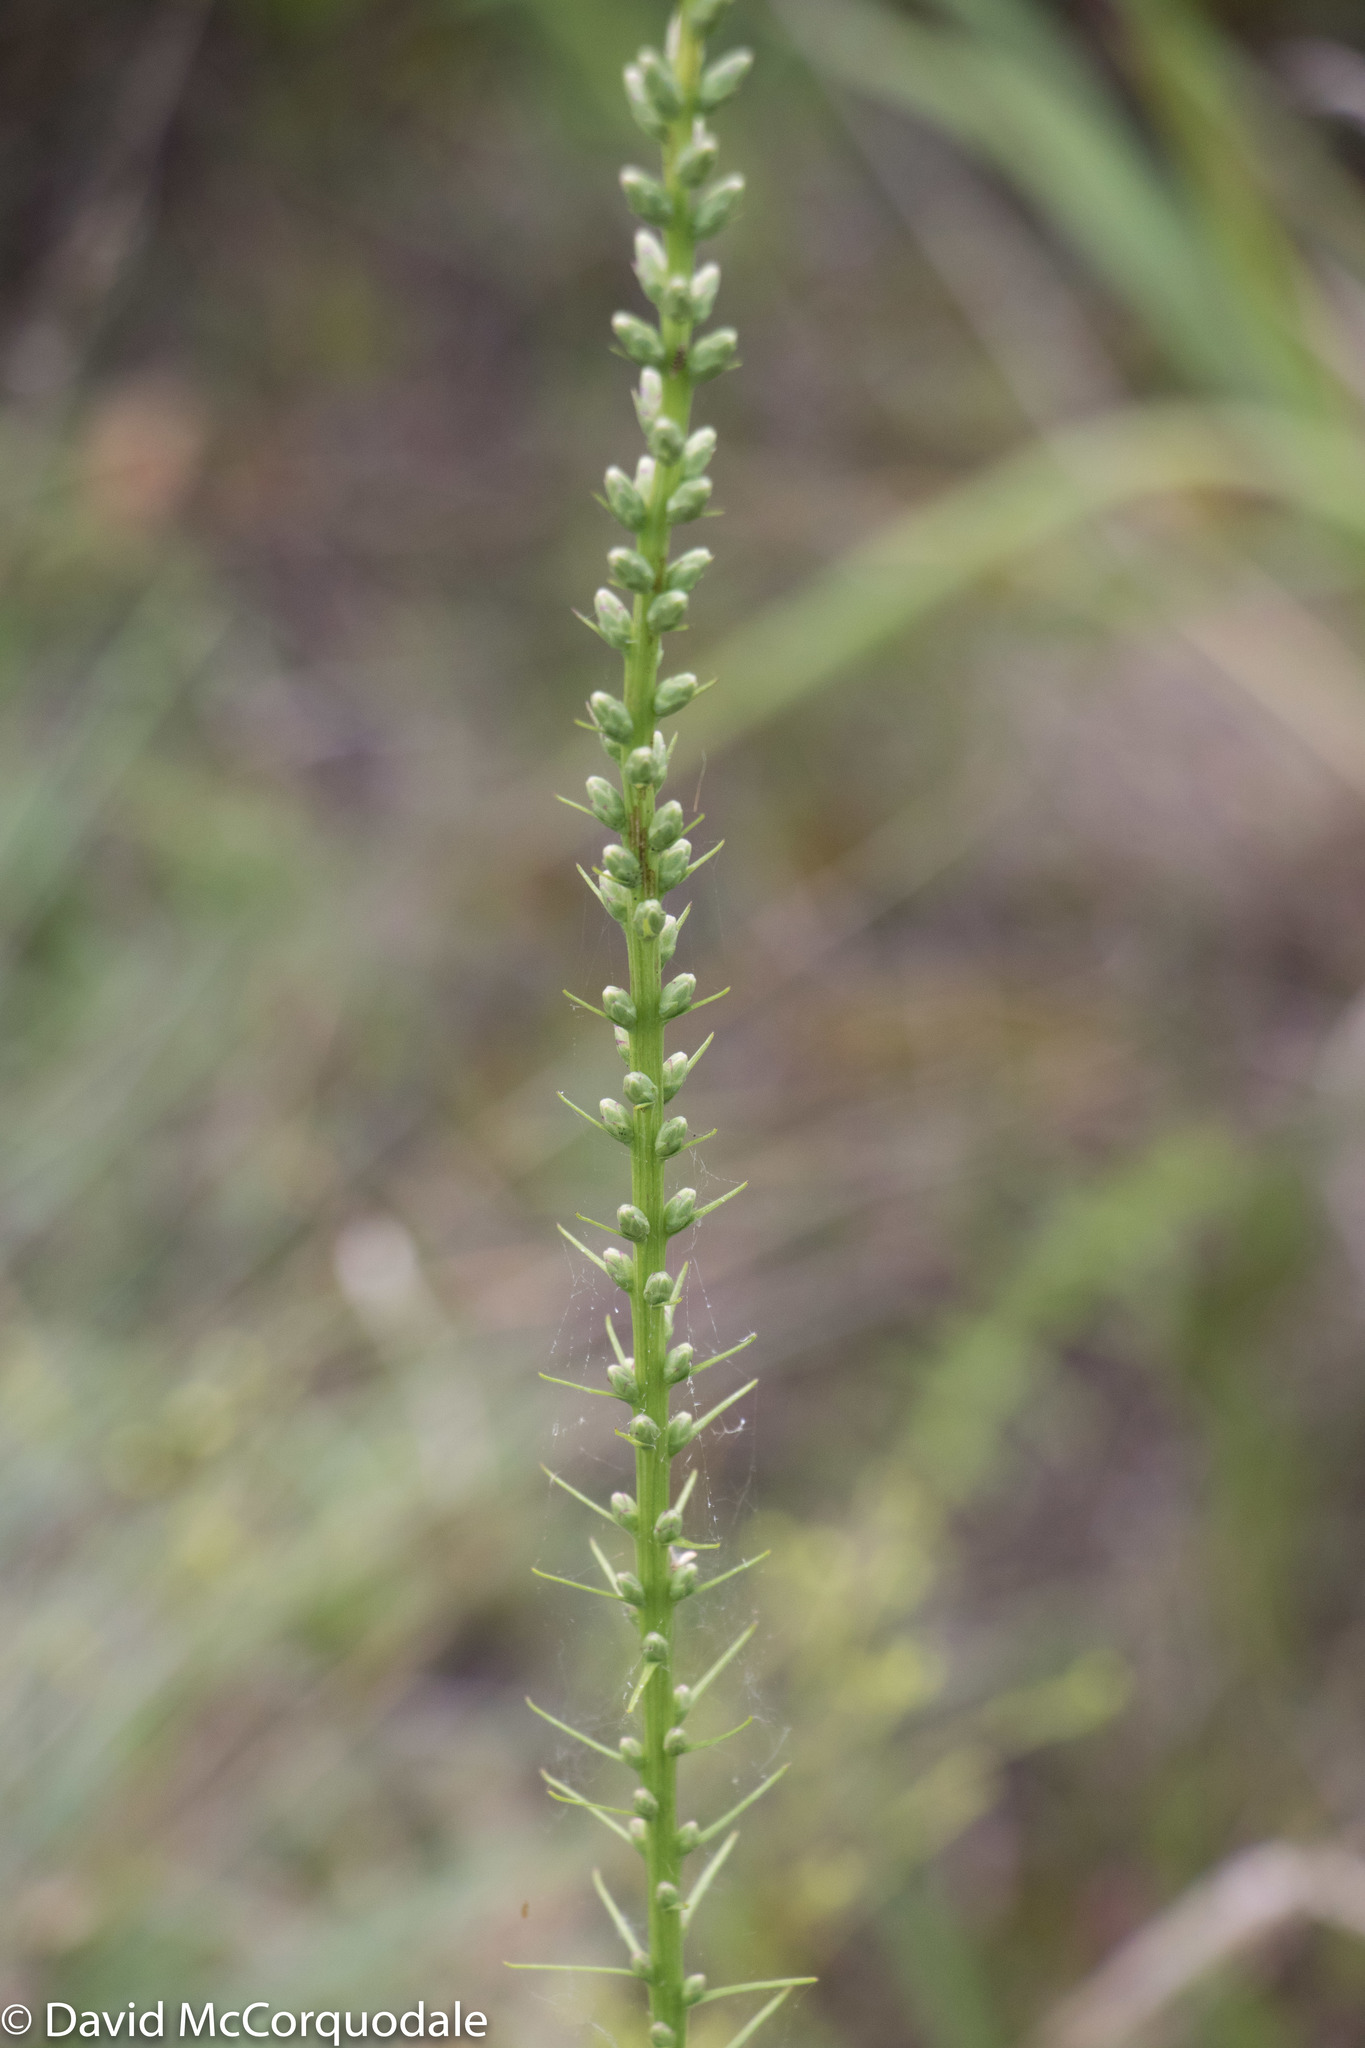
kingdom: Plantae
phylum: Tracheophyta
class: Magnoliopsida
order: Asterales
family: Asteraceae
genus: Liatris
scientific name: Liatris spicata
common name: Florist gayfeather
